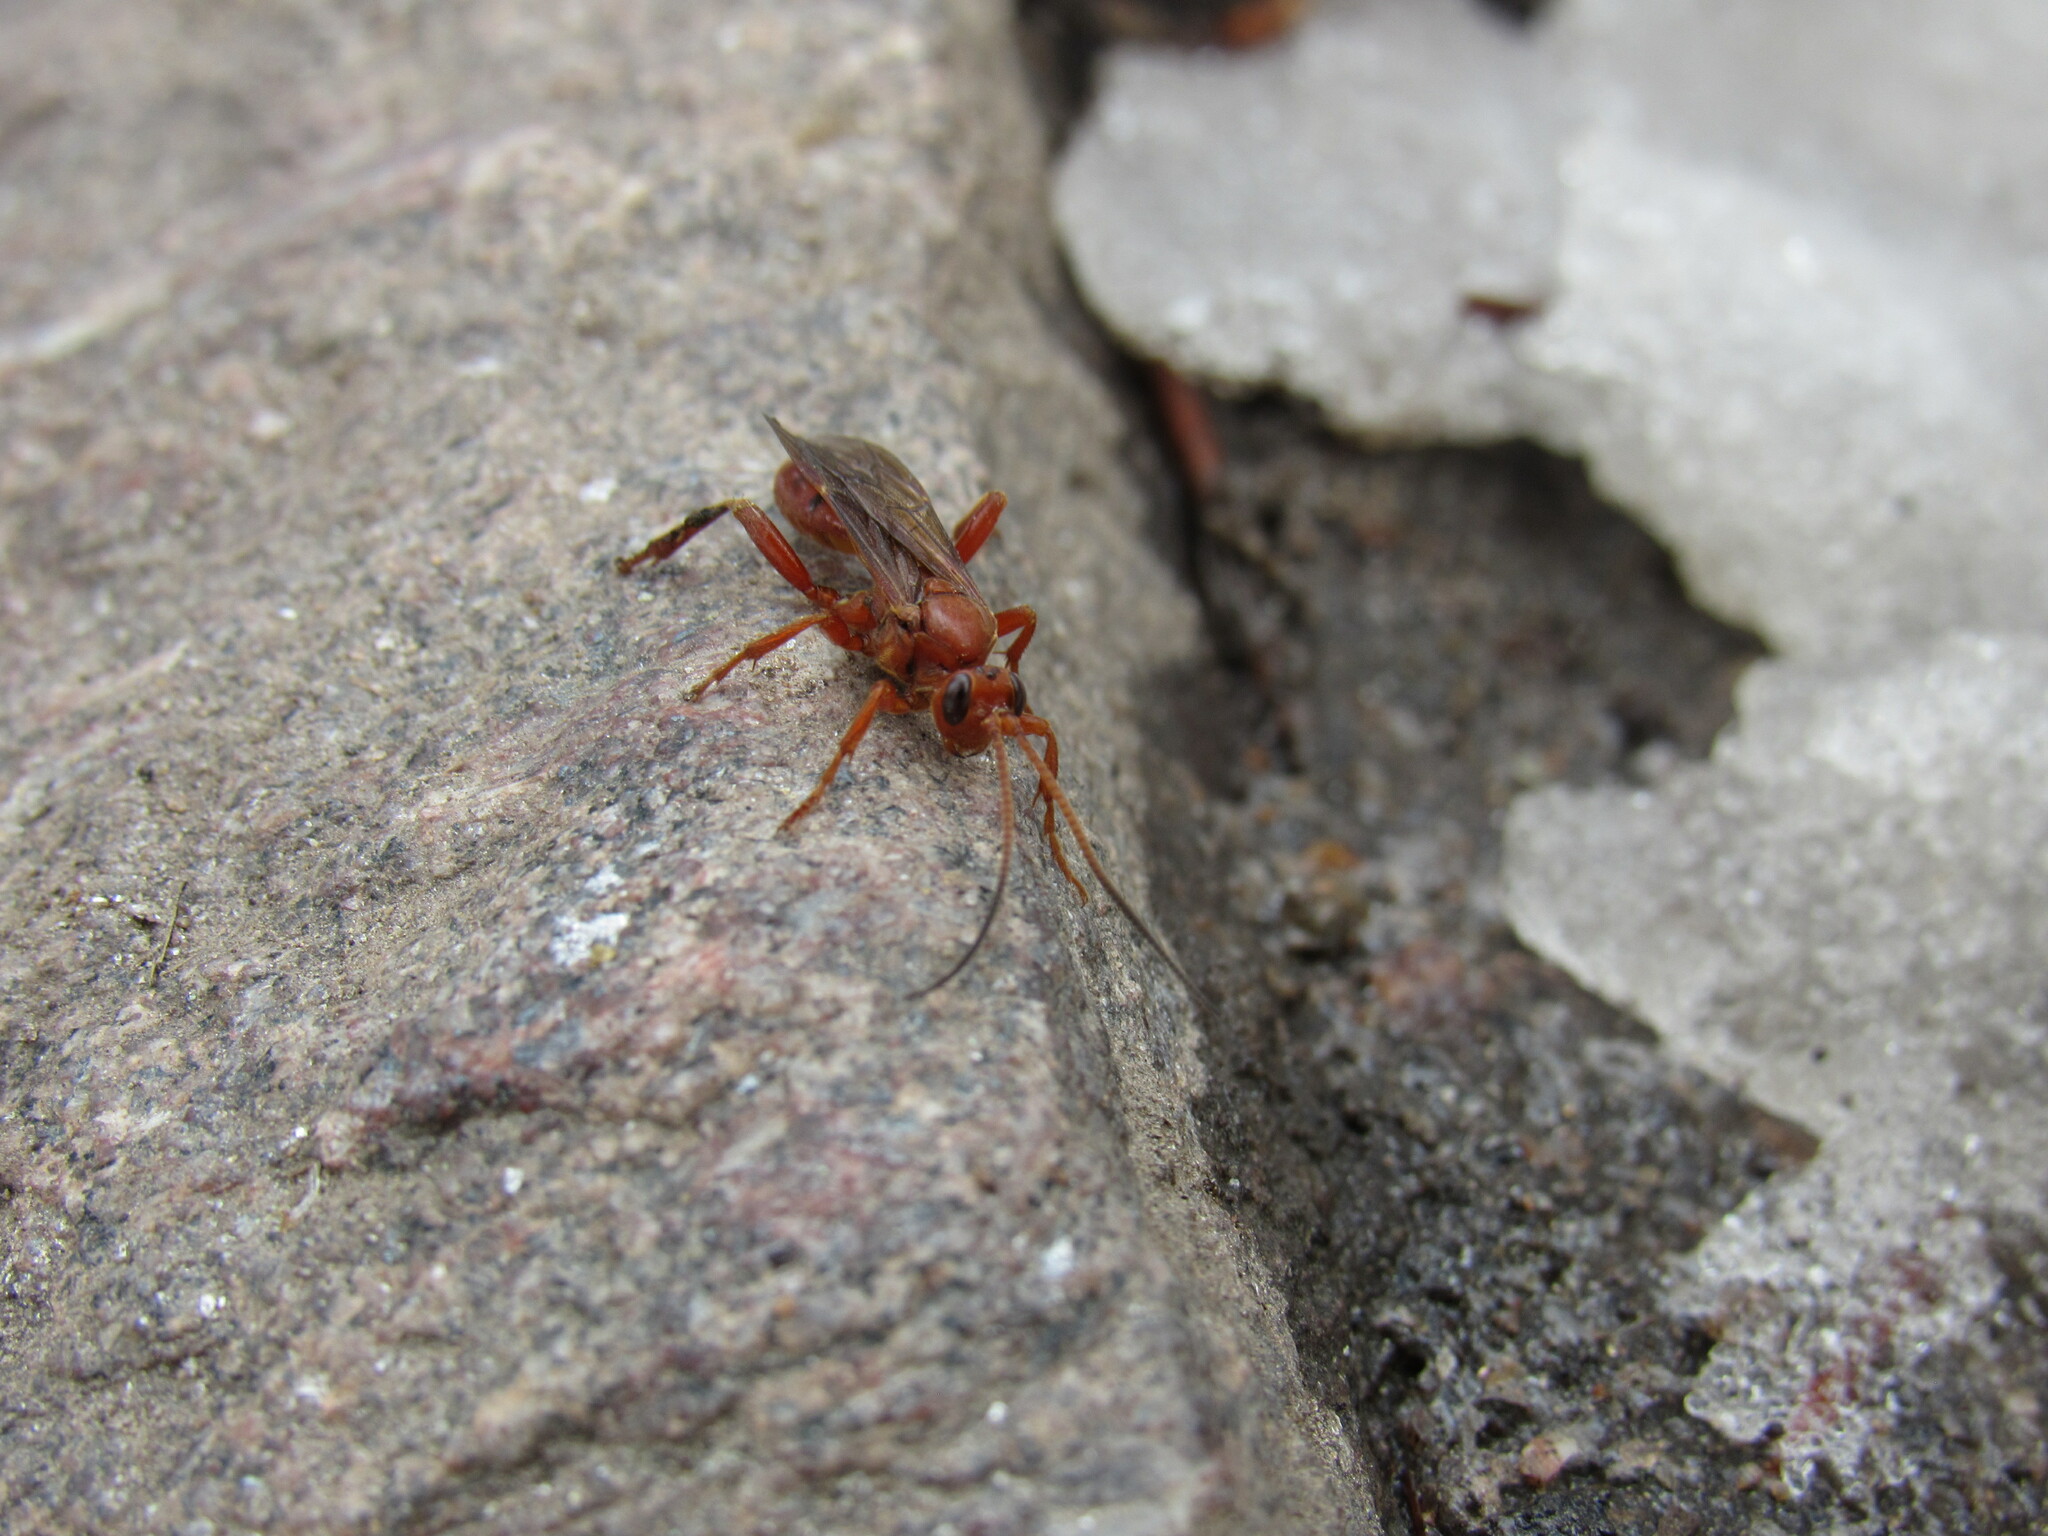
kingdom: Animalia
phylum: Arthropoda
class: Insecta
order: Hymenoptera
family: Ichneumonidae
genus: Ichneumon
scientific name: Ichneumon
